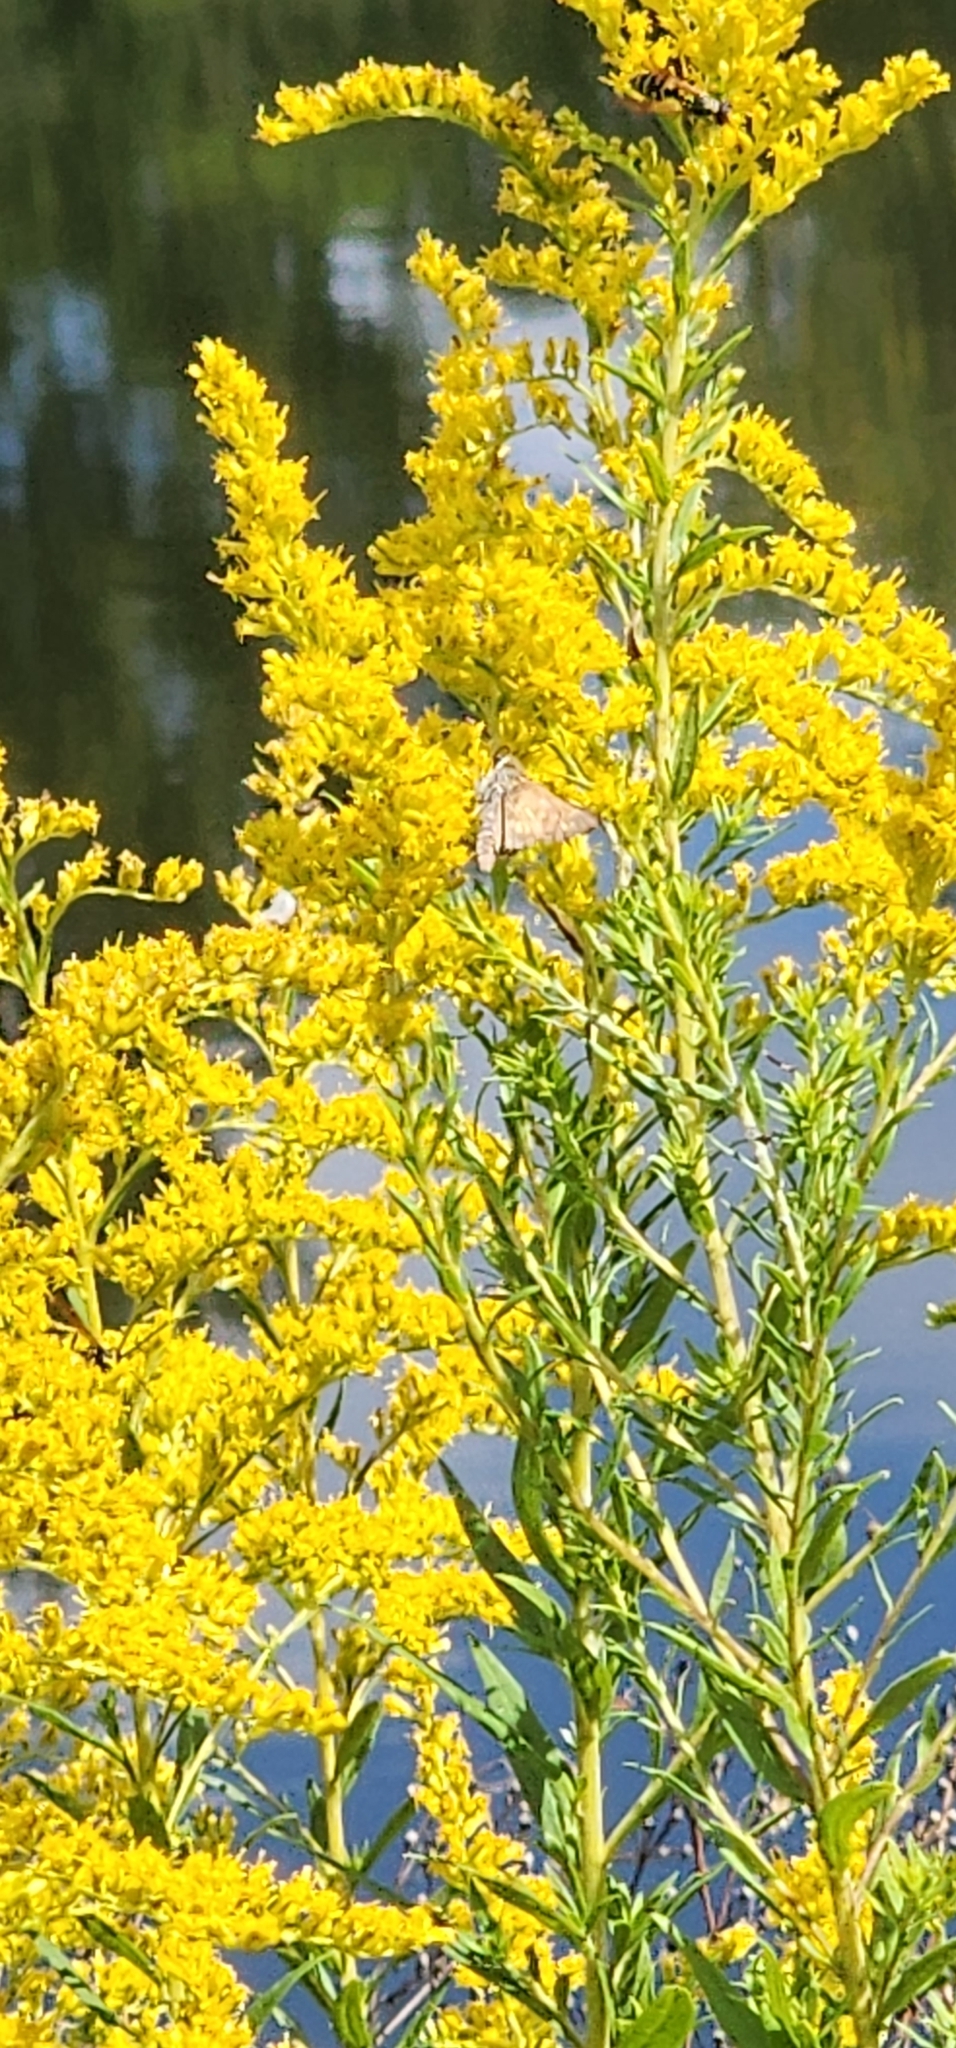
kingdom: Animalia
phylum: Arthropoda
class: Insecta
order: Lepidoptera
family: Hesperiidae
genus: Atalopedes
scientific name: Atalopedes
